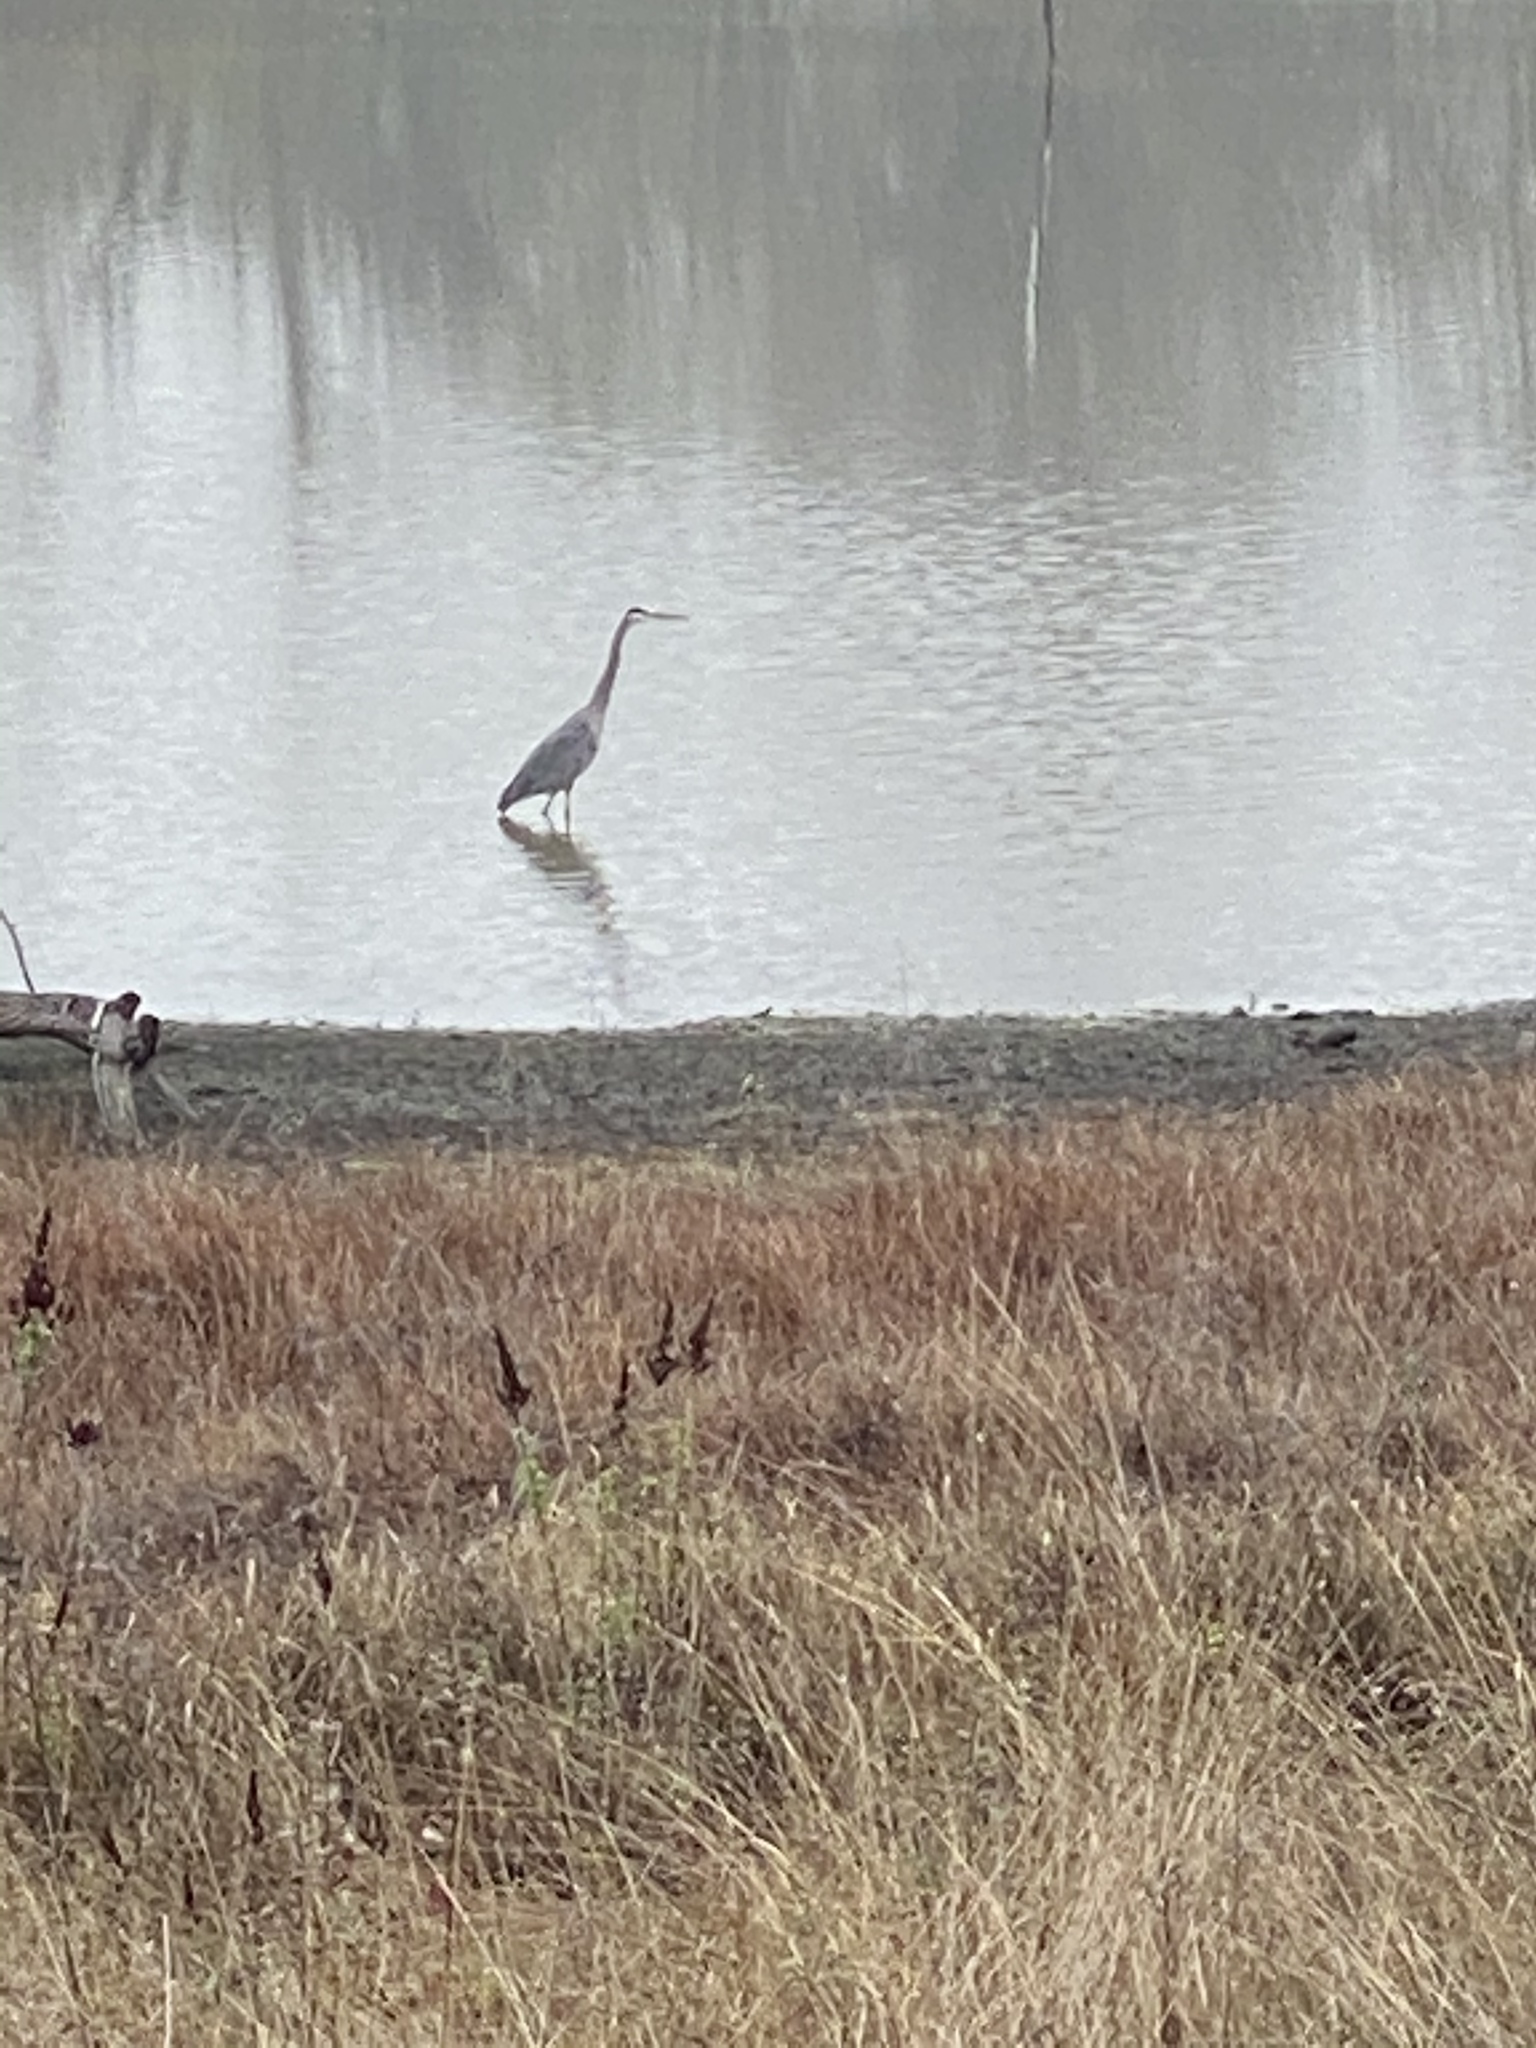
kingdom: Animalia
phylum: Chordata
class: Aves
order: Pelecaniformes
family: Ardeidae
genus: Ardea
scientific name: Ardea herodias
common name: Great blue heron
